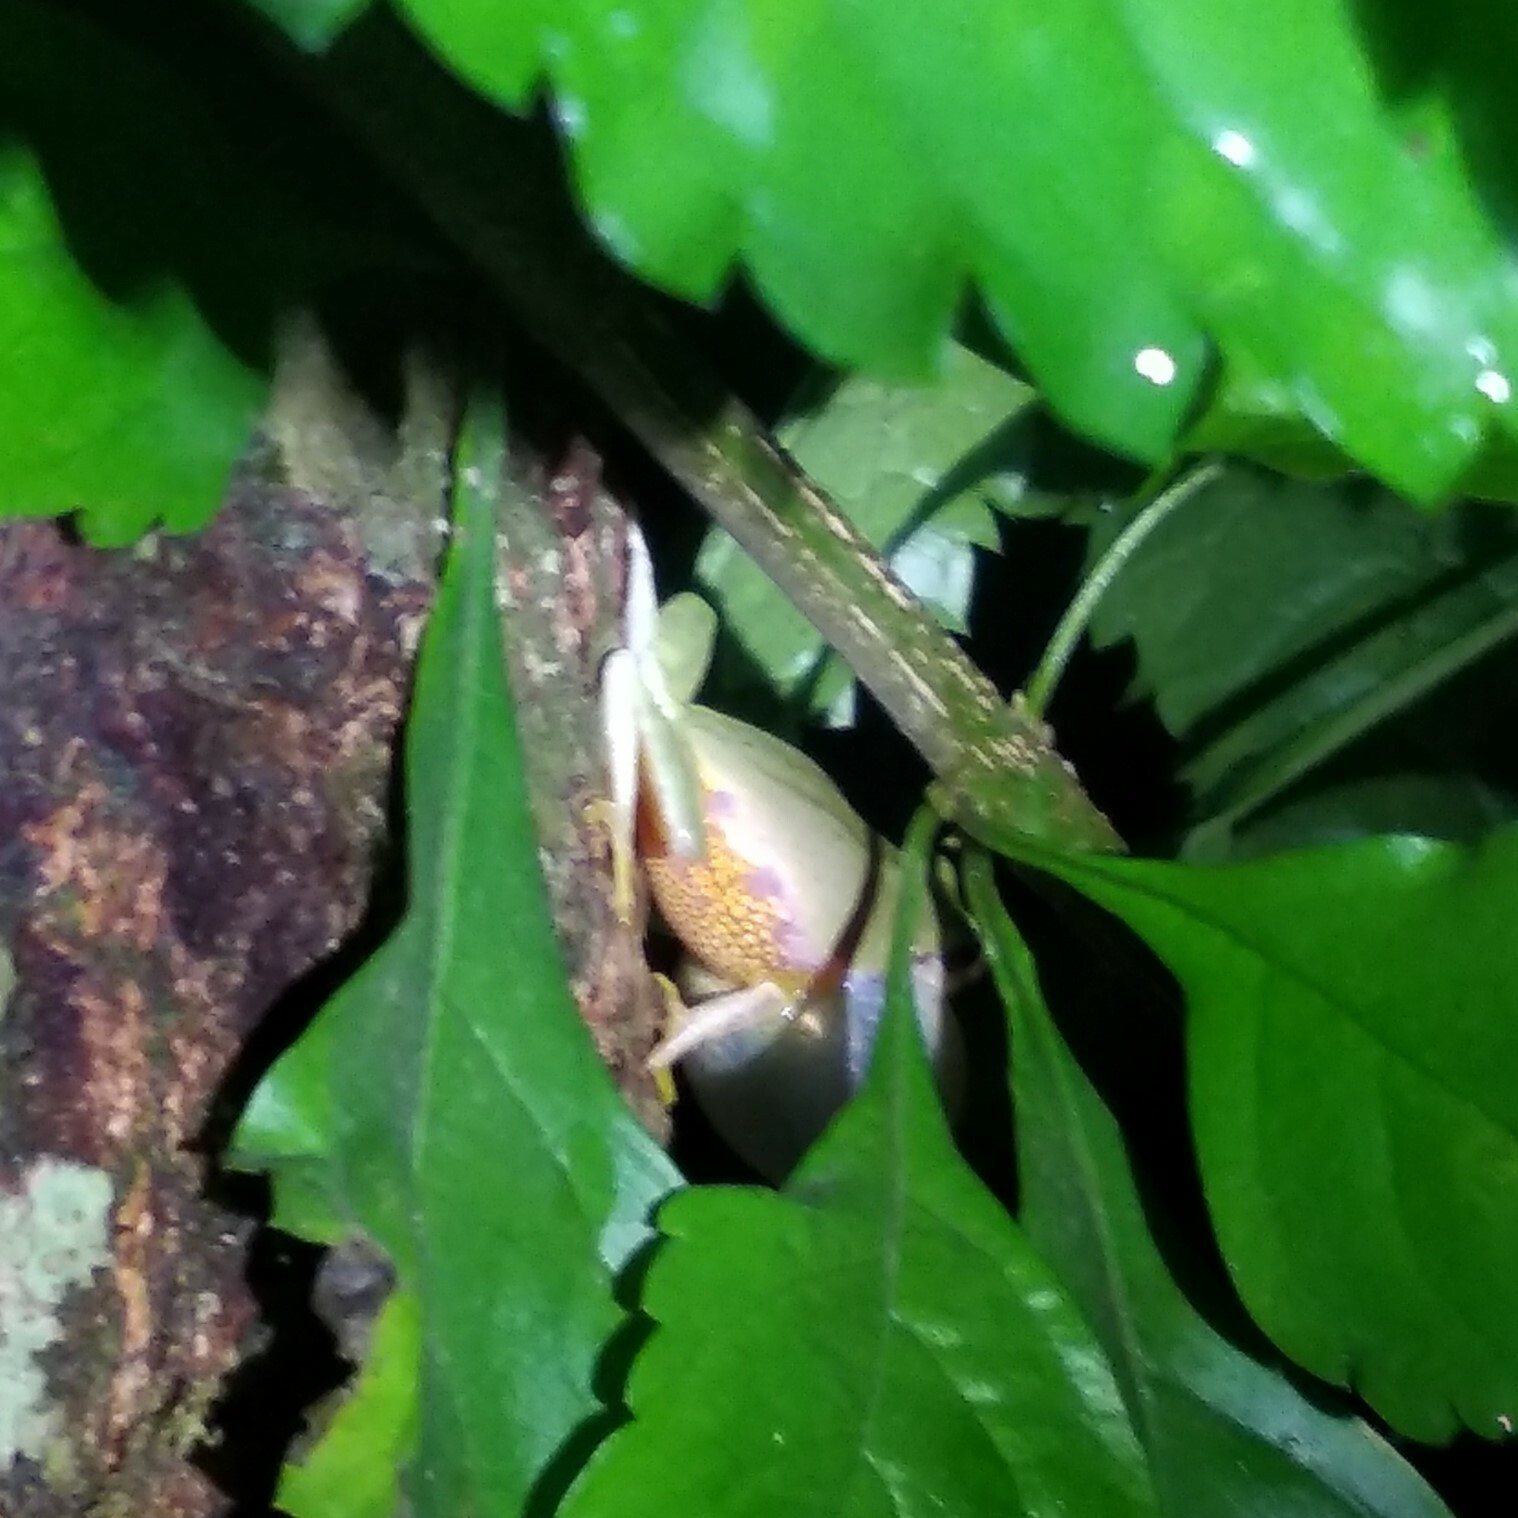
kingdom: Animalia
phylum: Chordata
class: Amphibia
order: Anura
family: Rhacophoridae
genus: Raorchestes
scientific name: Raorchestes glandulosus
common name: Beautiful bush frog
